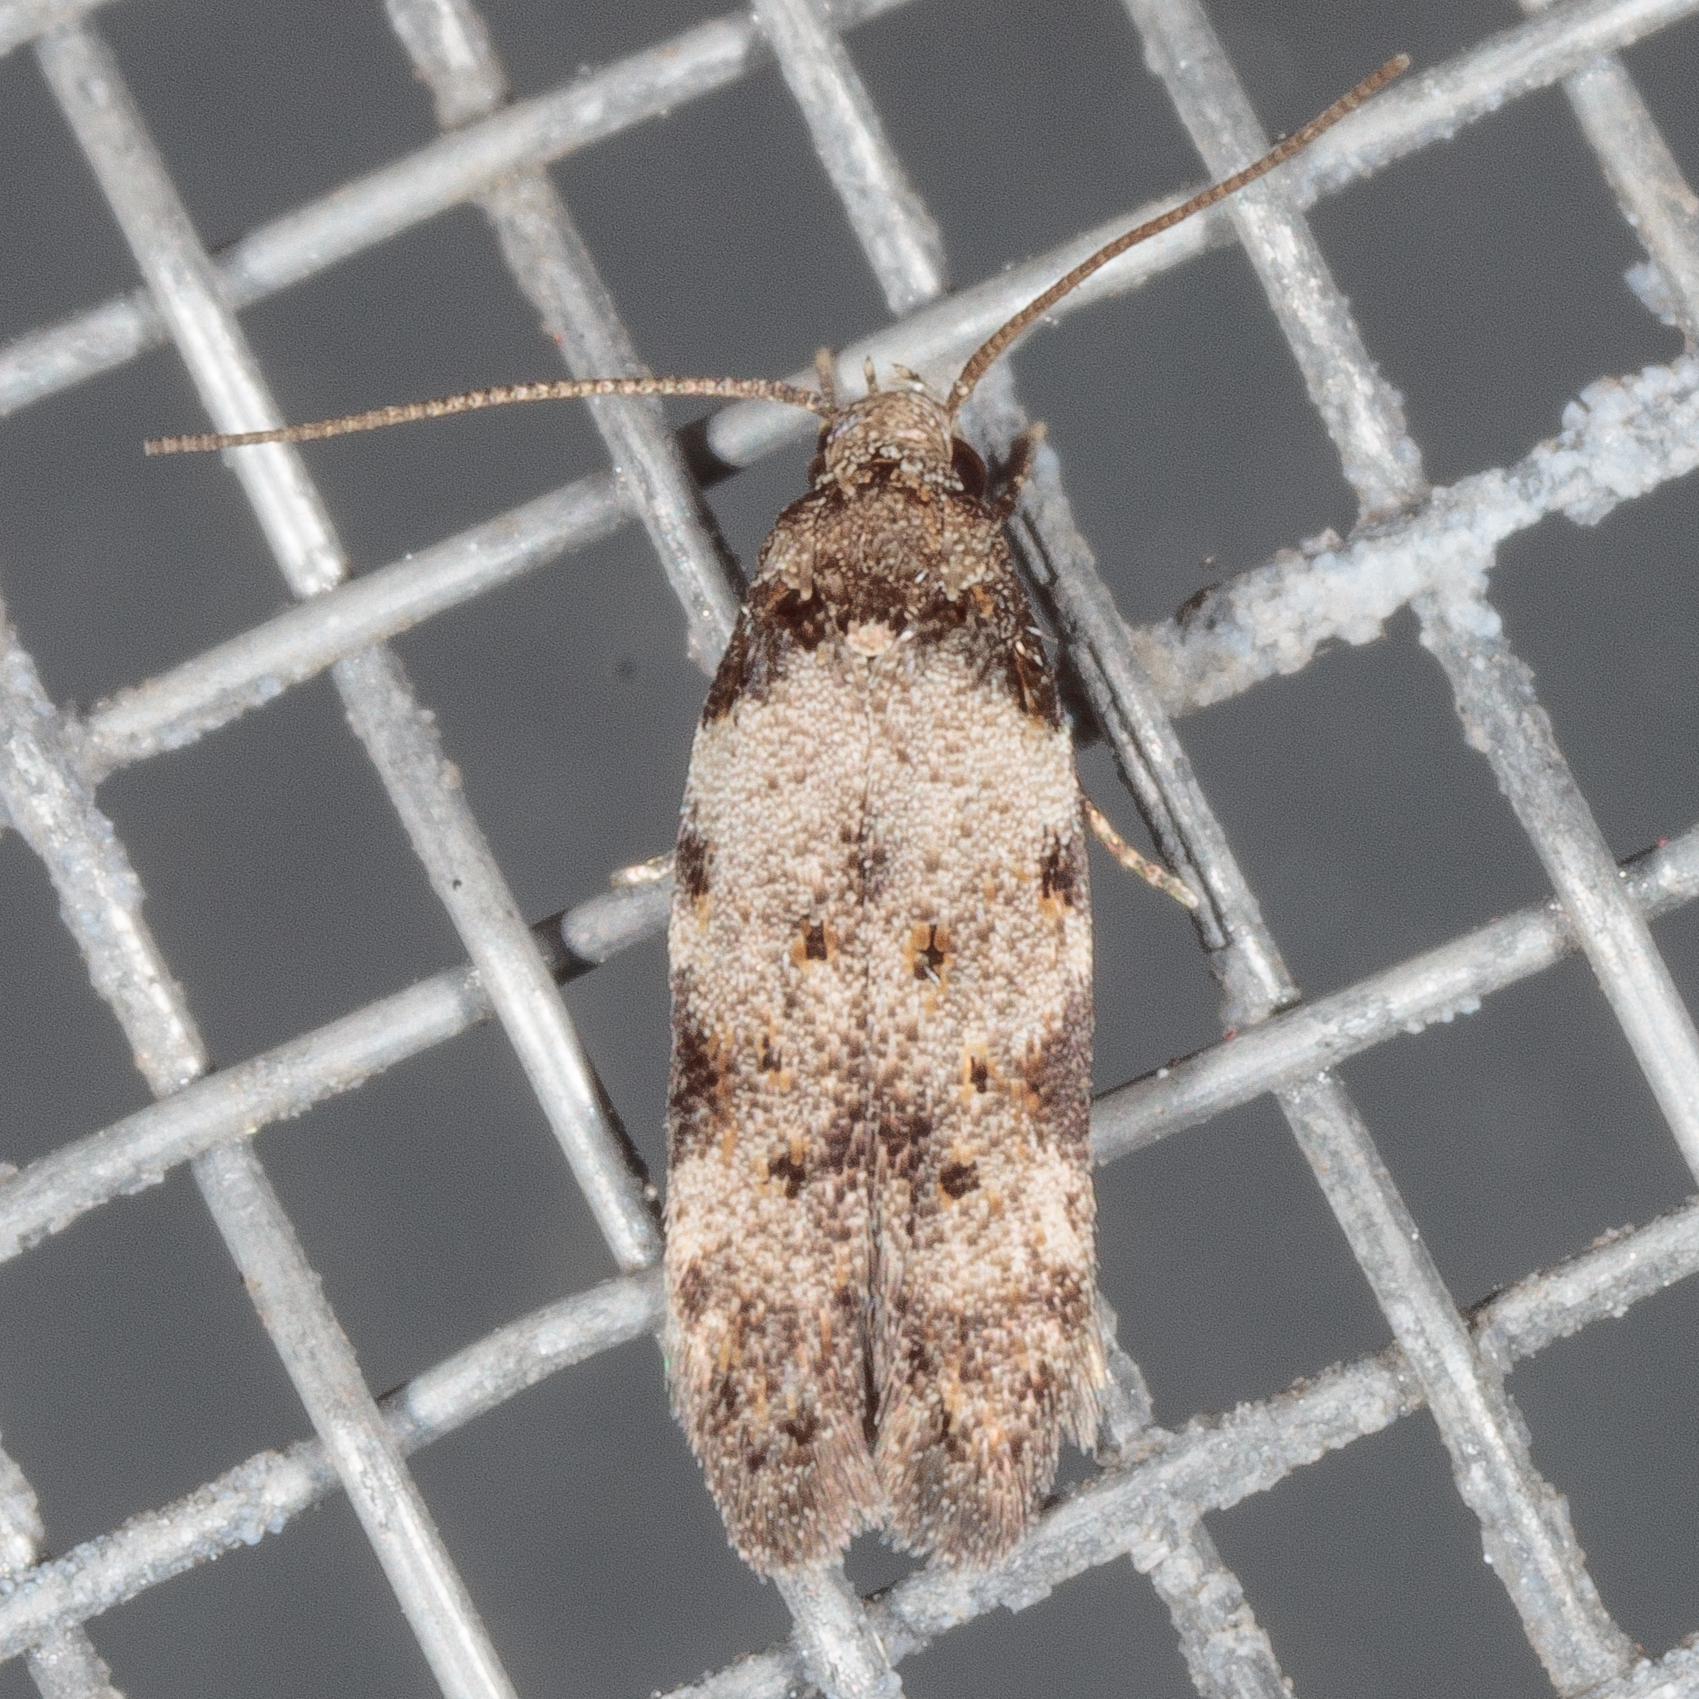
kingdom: Animalia
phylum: Arthropoda
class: Insecta
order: Lepidoptera
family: Autostichidae
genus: Taygete
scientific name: Taygete attributella
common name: Triangle-marked twirler moth
